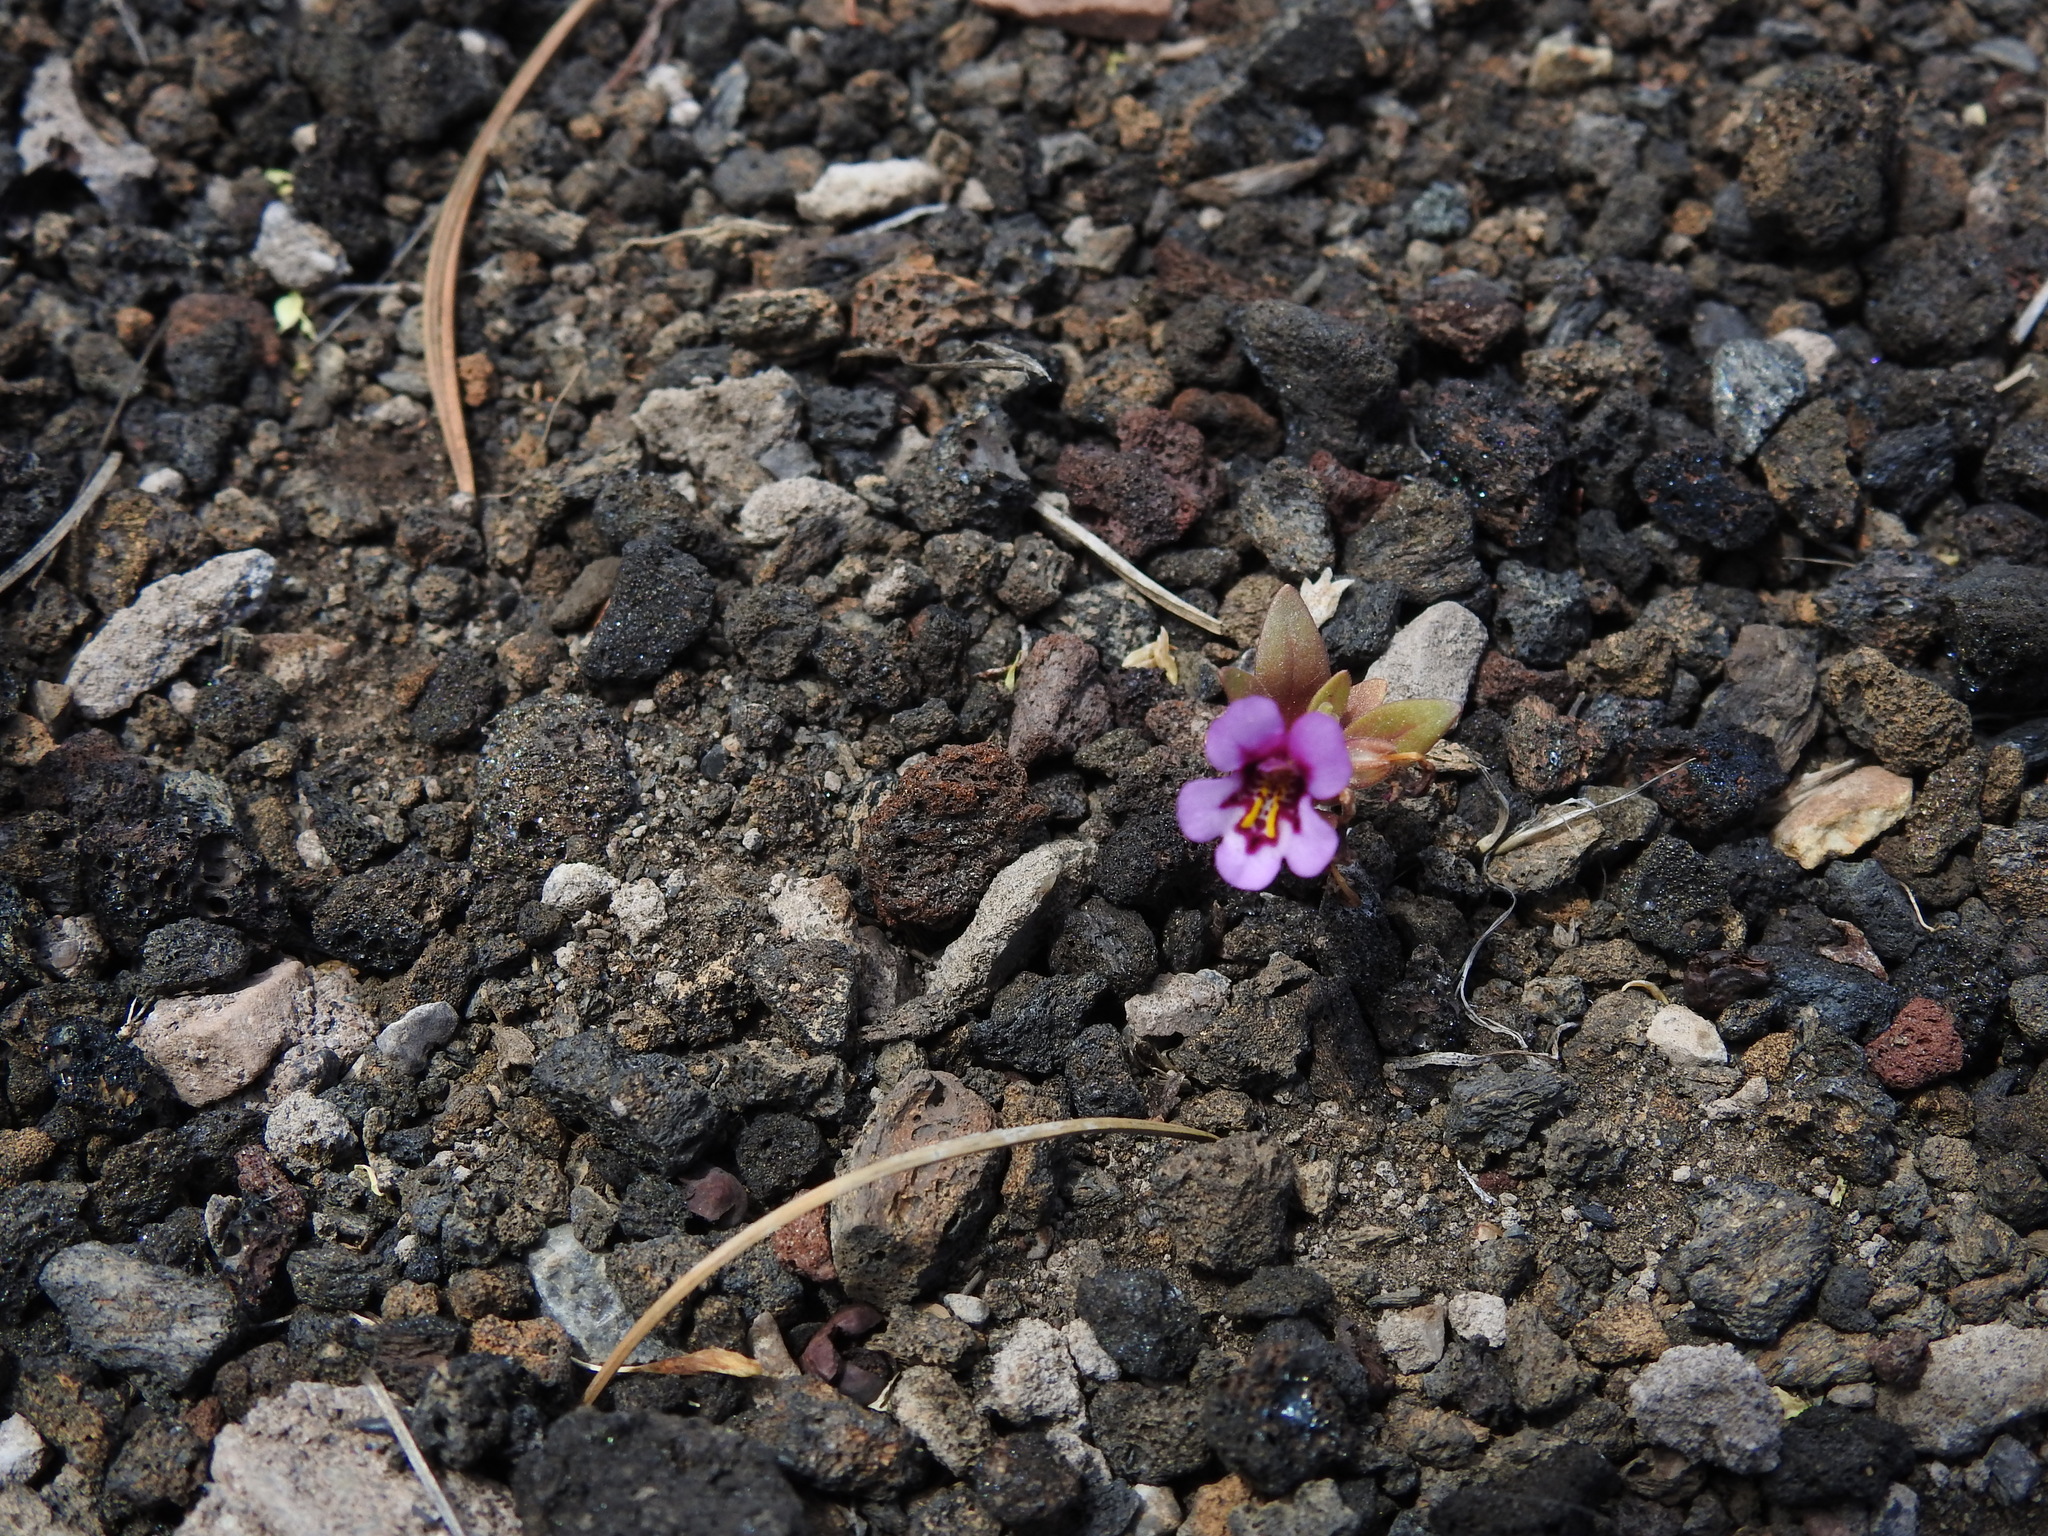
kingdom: Plantae
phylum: Tracheophyta
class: Magnoliopsida
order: Lamiales
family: Phrymaceae
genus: Diplacus
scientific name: Diplacus nanus
